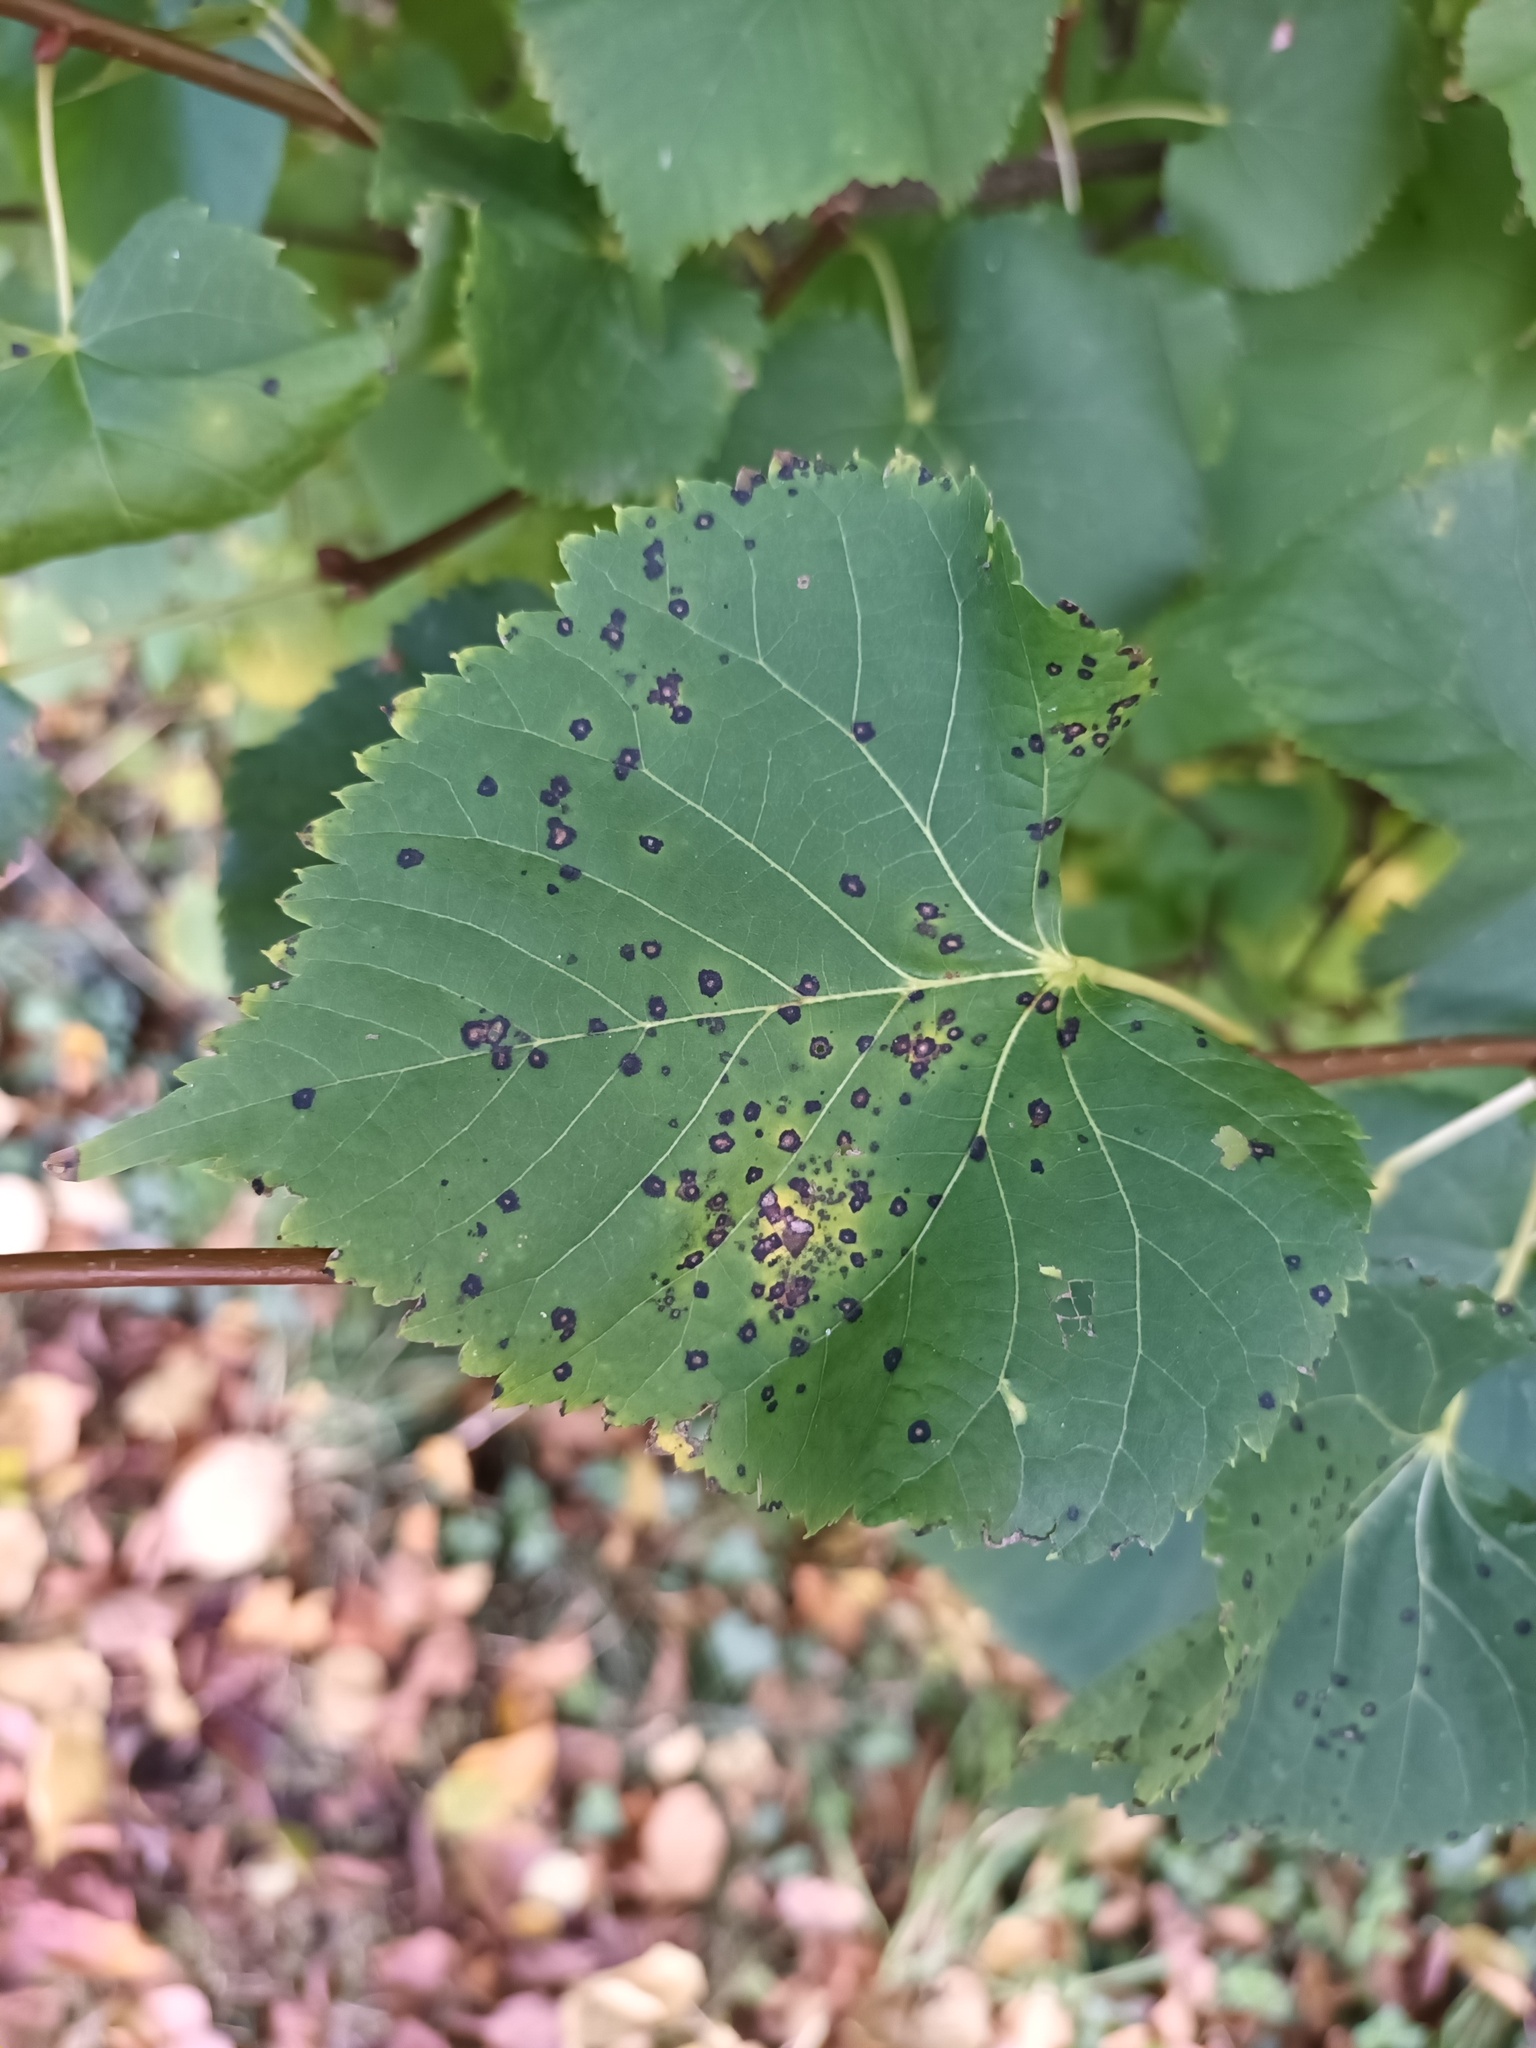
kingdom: Fungi
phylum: Ascomycota
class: Dothideomycetes
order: Mycosphaerellales
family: Mycosphaerellaceae
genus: Paracercosporidium
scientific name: Paracercosporidium microsorum
